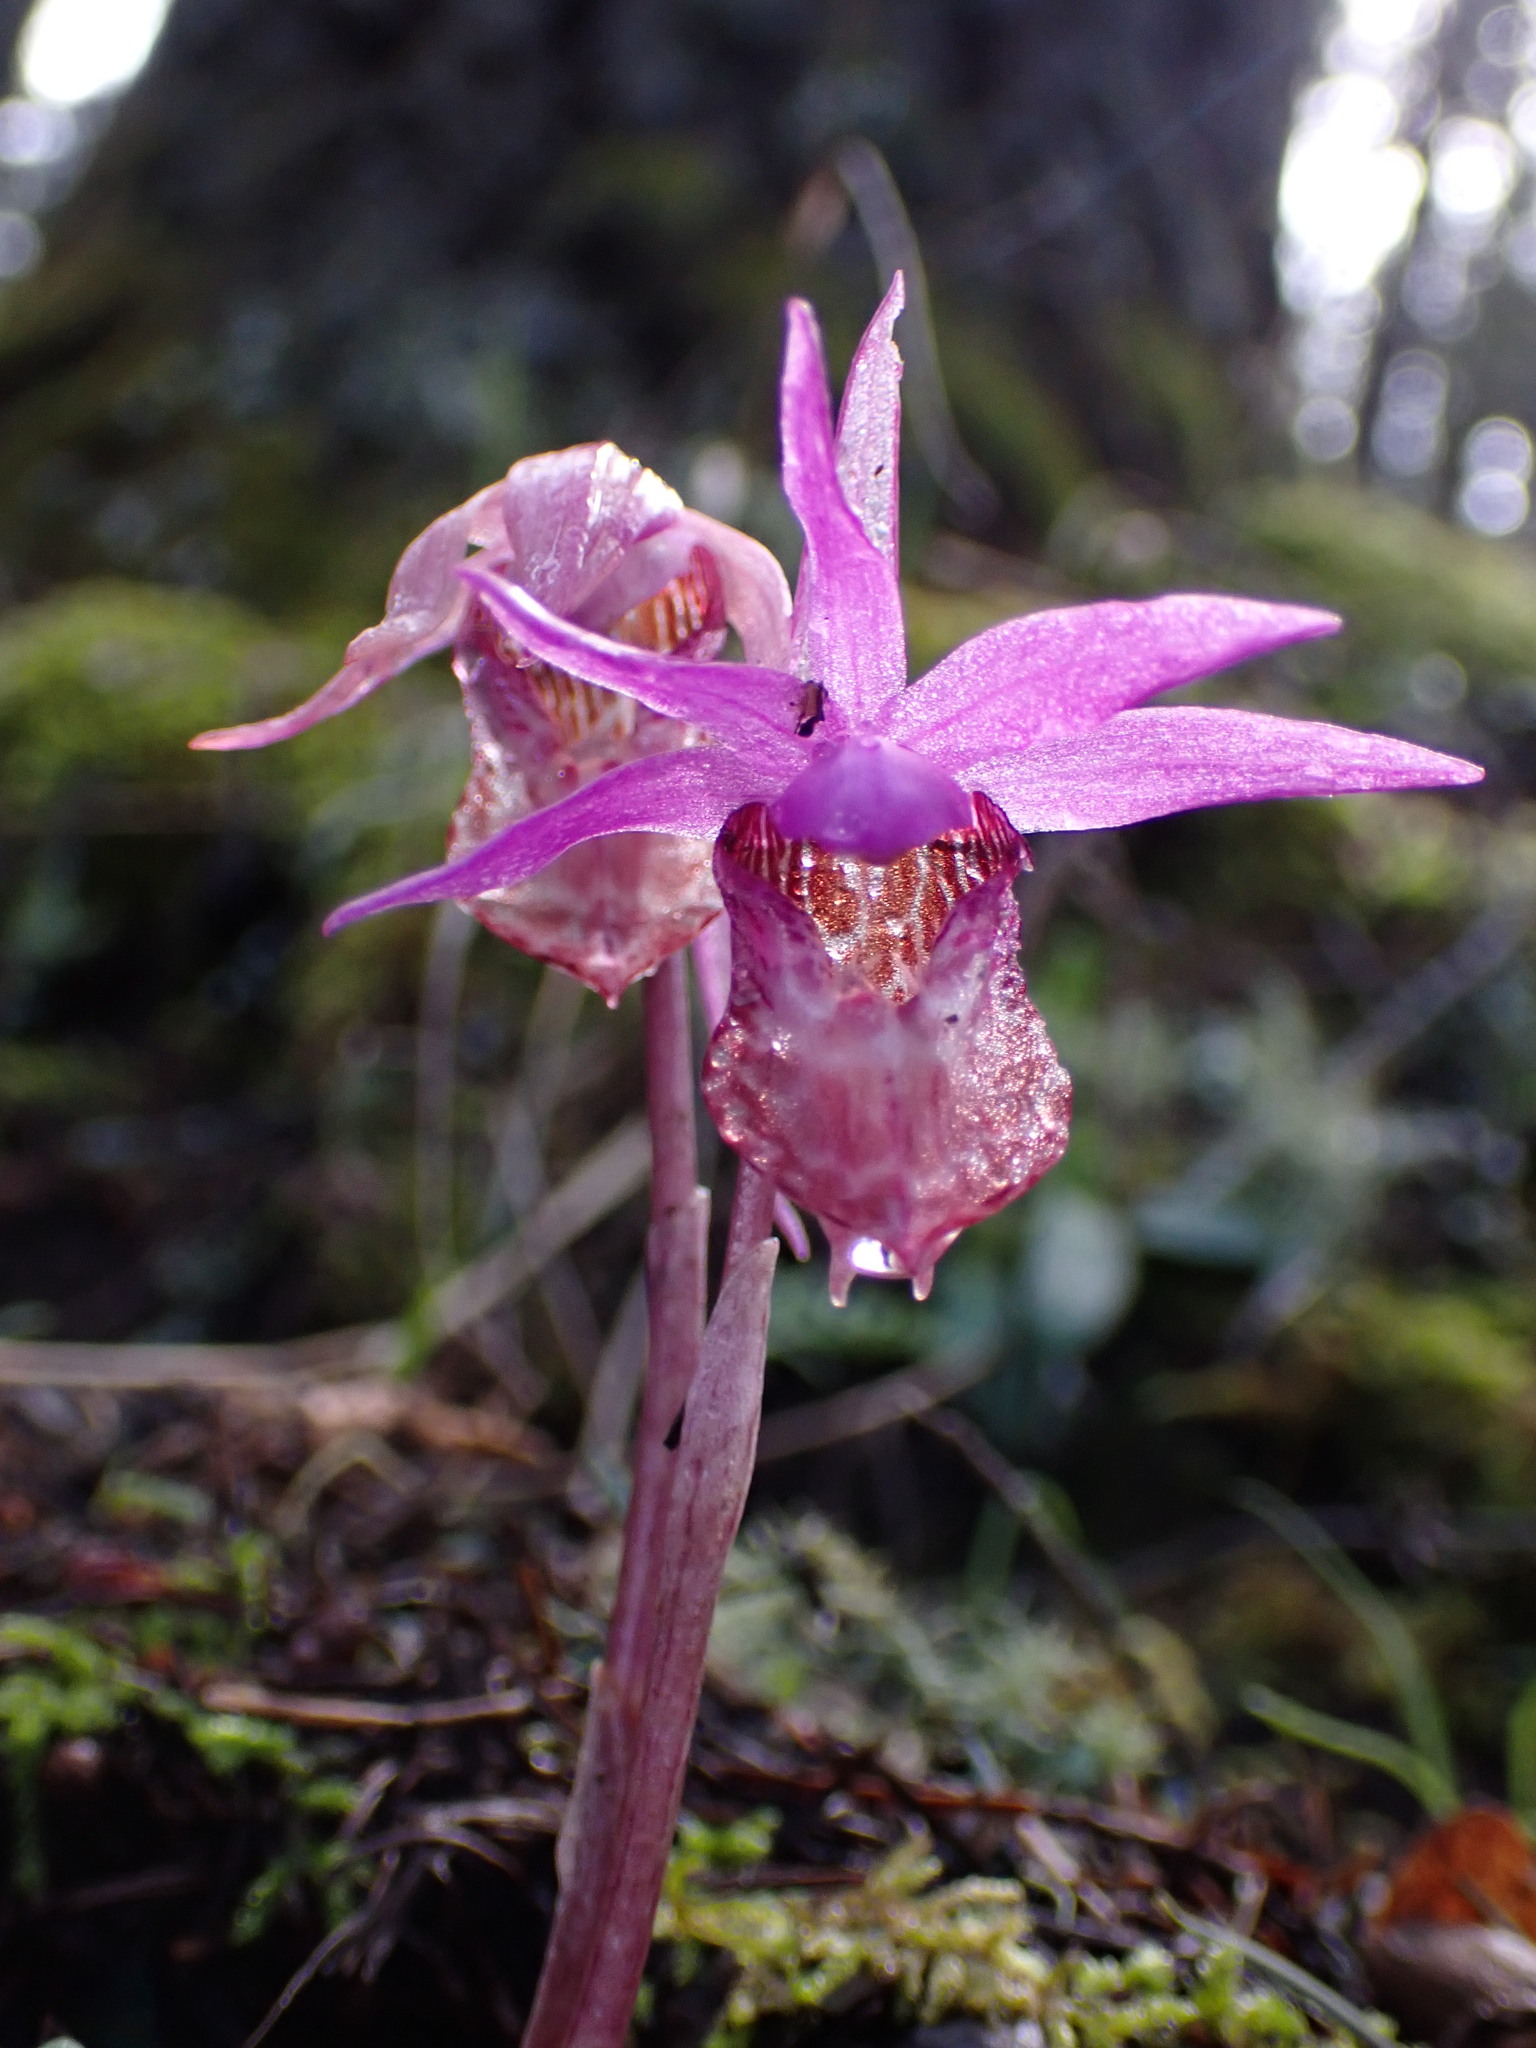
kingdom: Plantae
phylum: Tracheophyta
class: Liliopsida
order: Asparagales
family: Orchidaceae
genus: Calypso
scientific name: Calypso bulbosa
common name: Calypso
